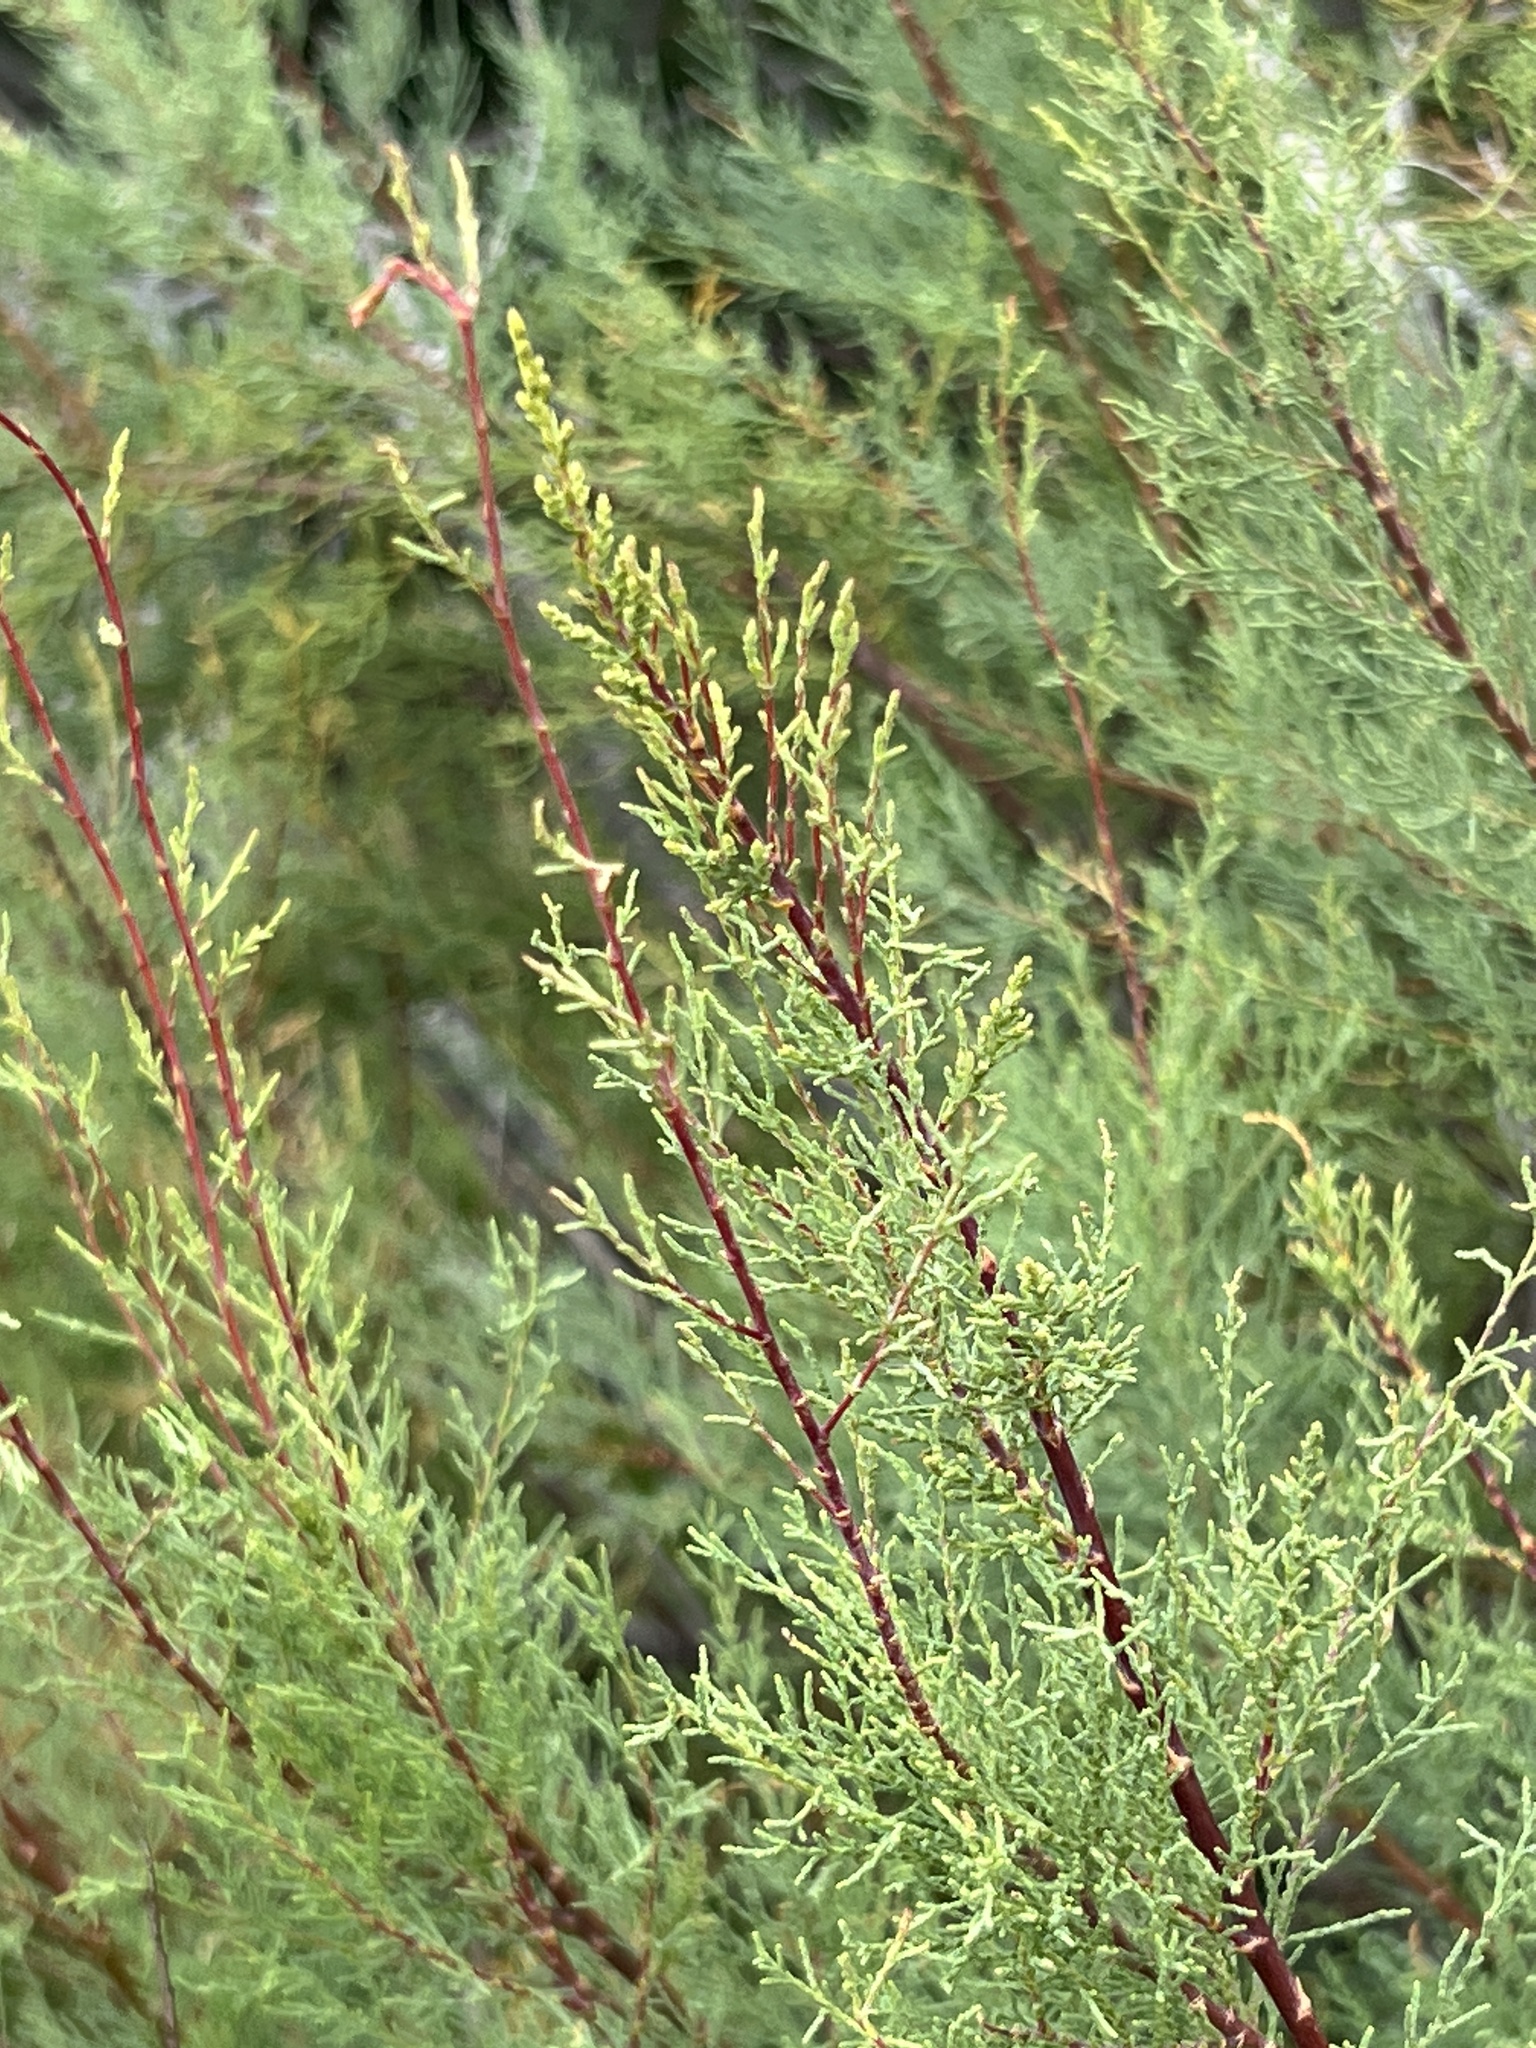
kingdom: Plantae
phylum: Tracheophyta
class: Magnoliopsida
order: Caryophyllales
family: Tamaricaceae
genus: Tamarix
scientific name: Tamarix
